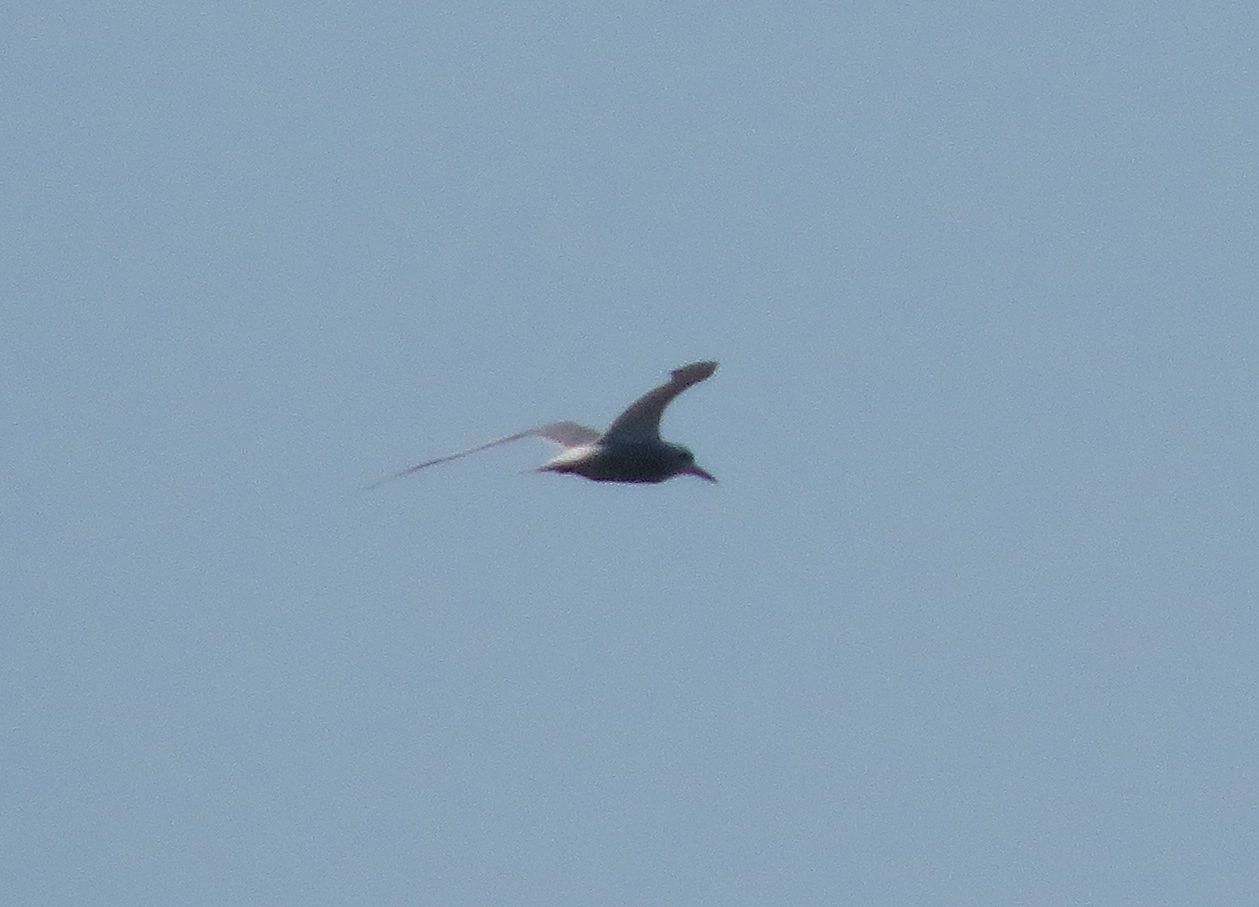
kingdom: Animalia
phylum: Chordata
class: Aves
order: Charadriiformes
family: Laridae
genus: Sterna
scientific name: Sterna trudeaui
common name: Snowy-crowned tern
